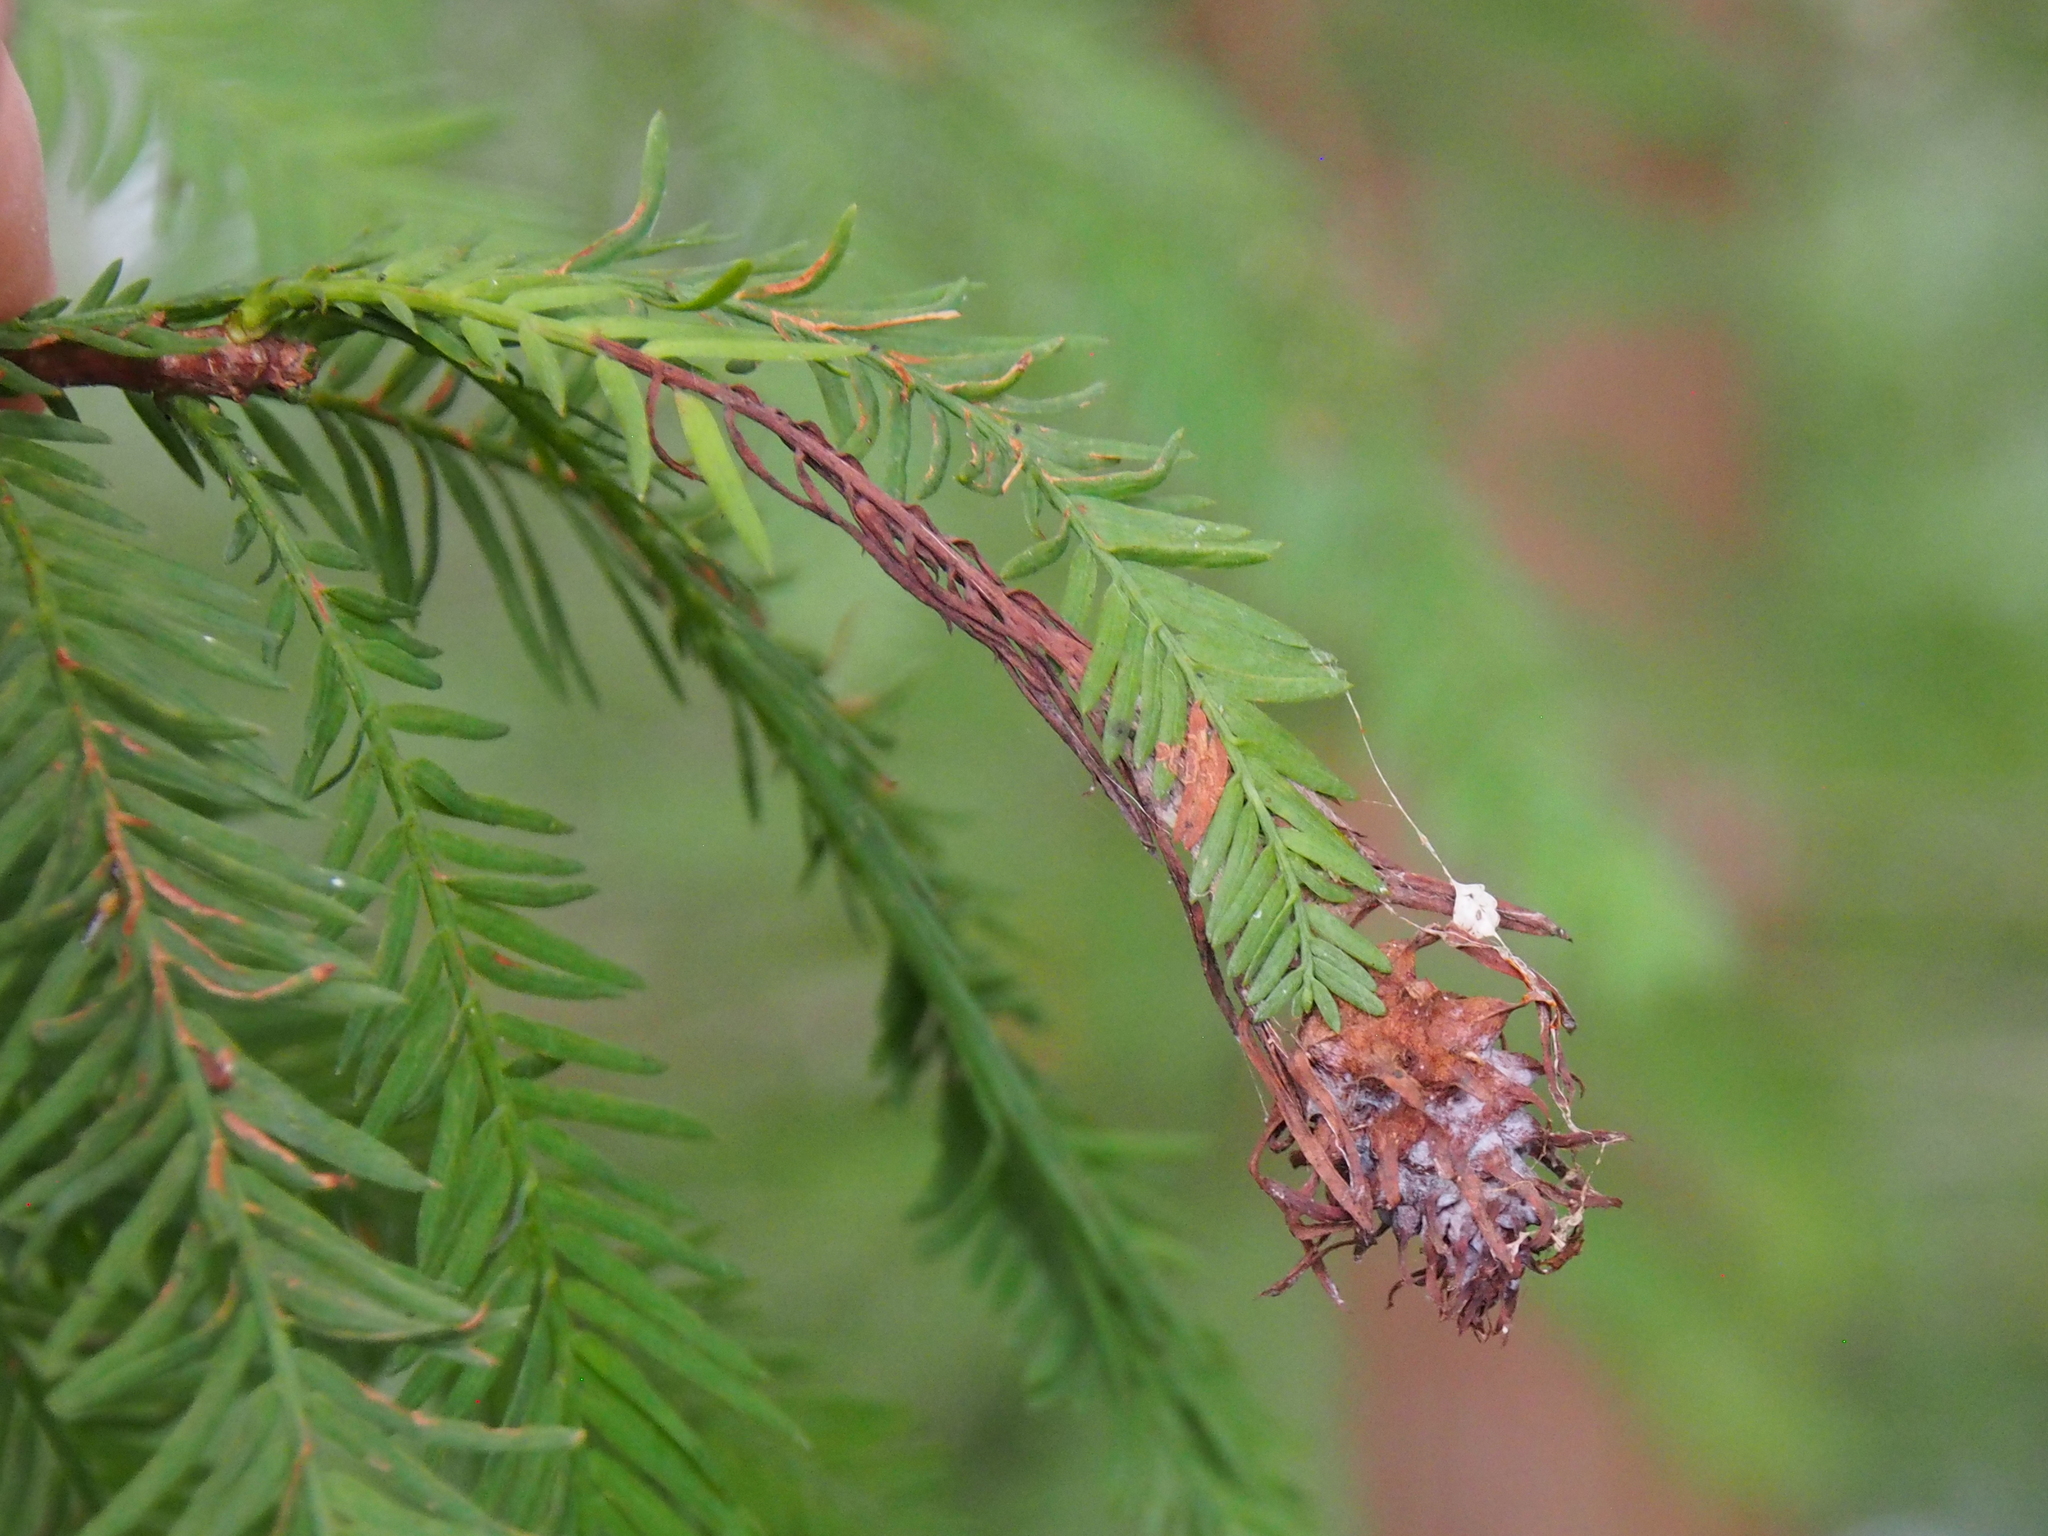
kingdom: Animalia
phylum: Arthropoda
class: Insecta
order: Diptera
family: Cecidomyiidae
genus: Taxodiomyia
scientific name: Taxodiomyia cupressiananassa
